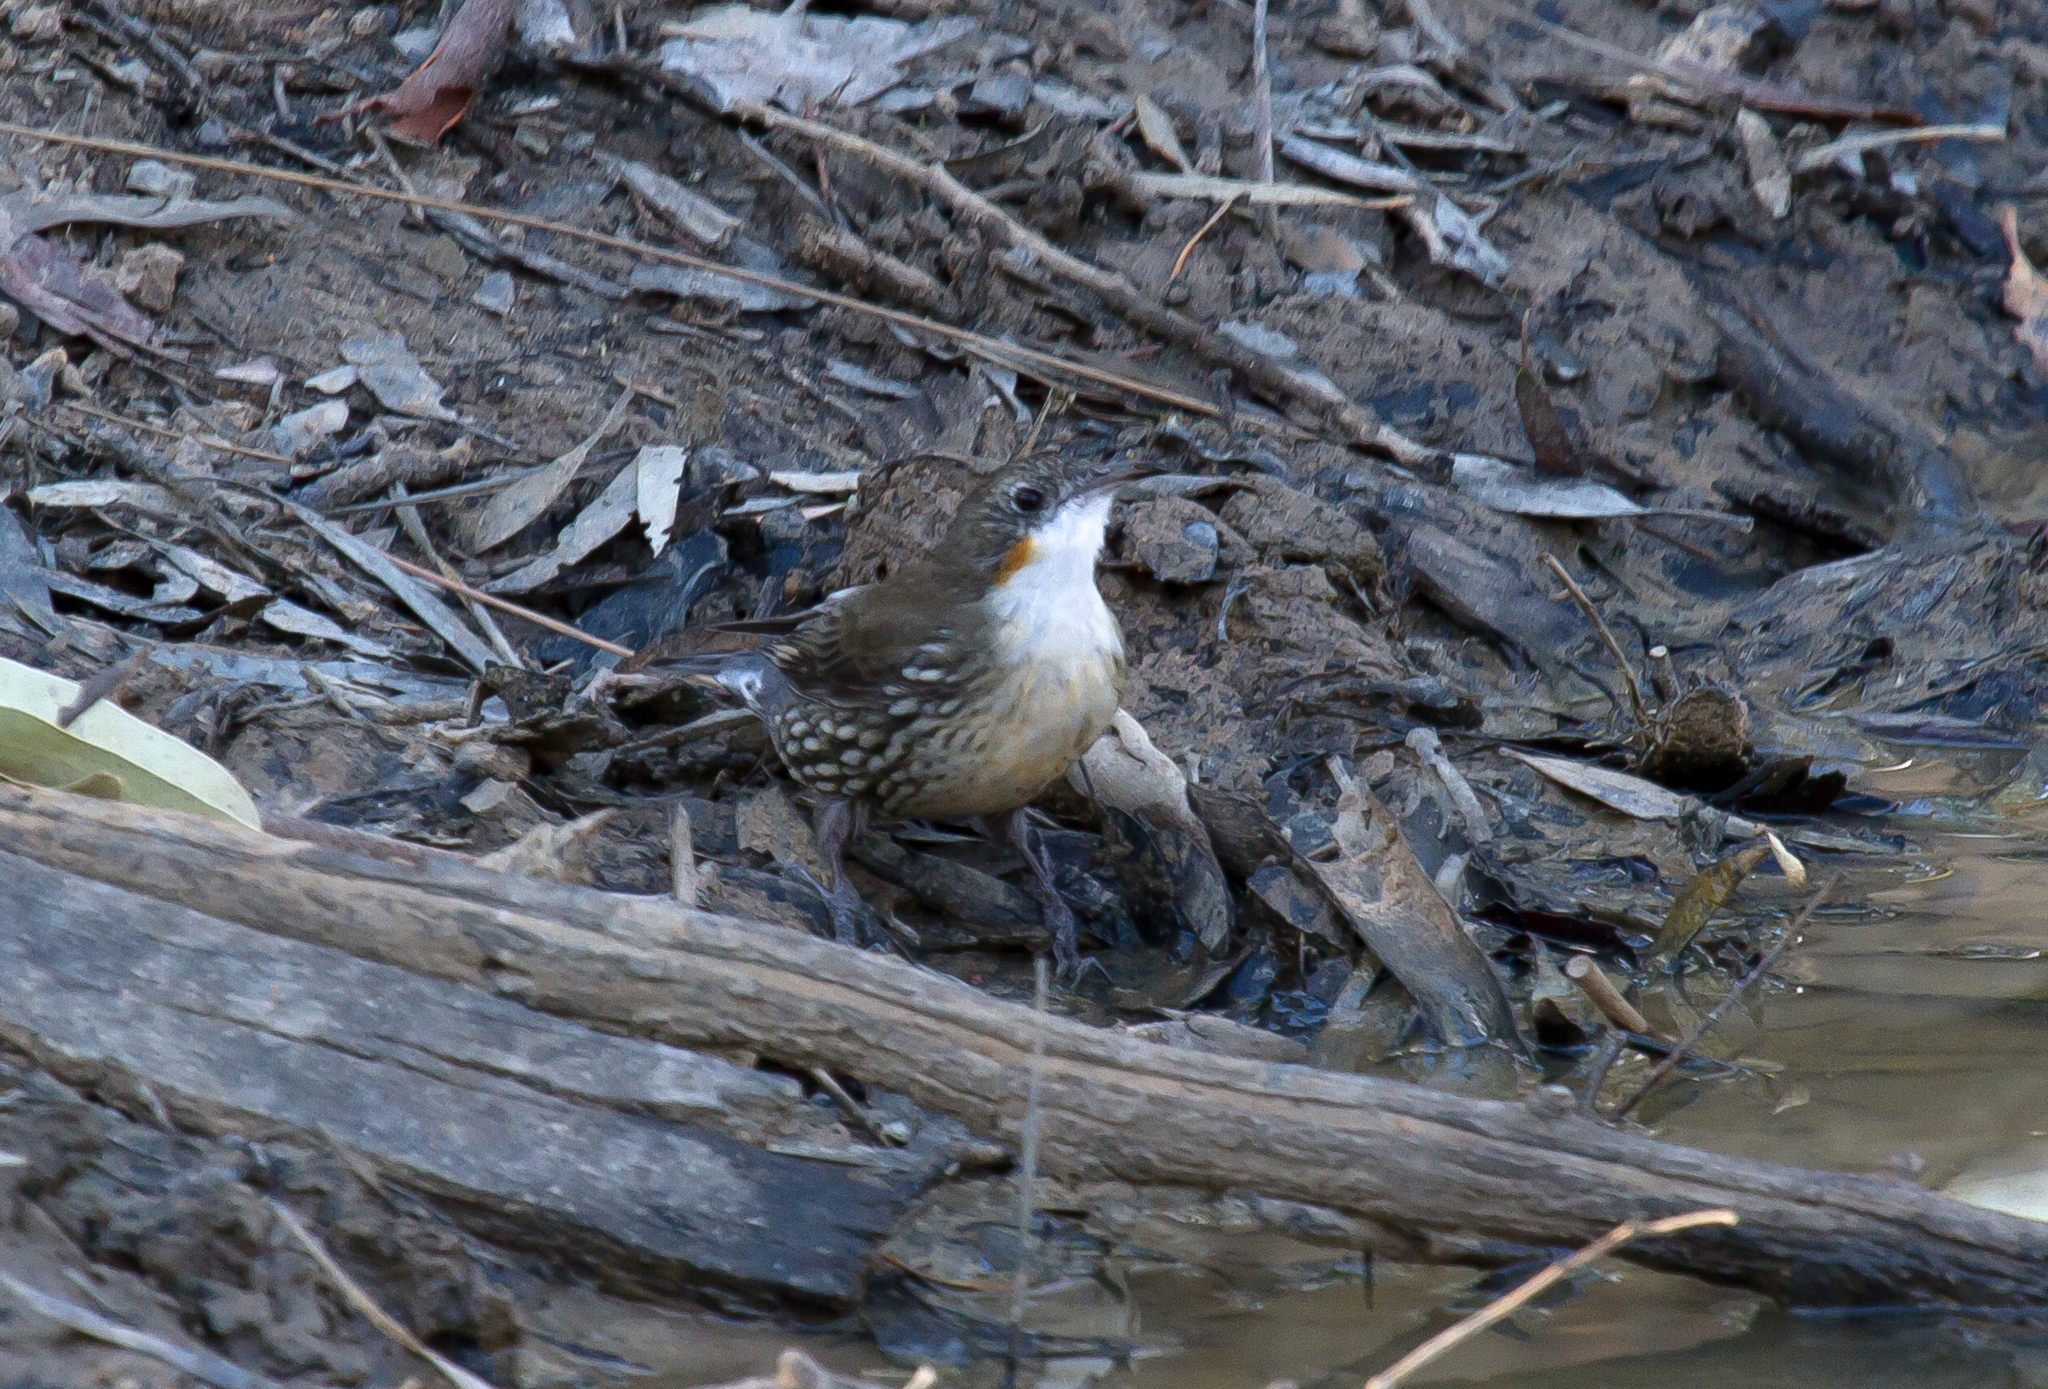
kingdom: Animalia
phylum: Chordata
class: Aves
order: Passeriformes
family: Climacteridae
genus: Cormobates
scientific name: Cormobates leucophaea
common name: White-throated treecreeper
